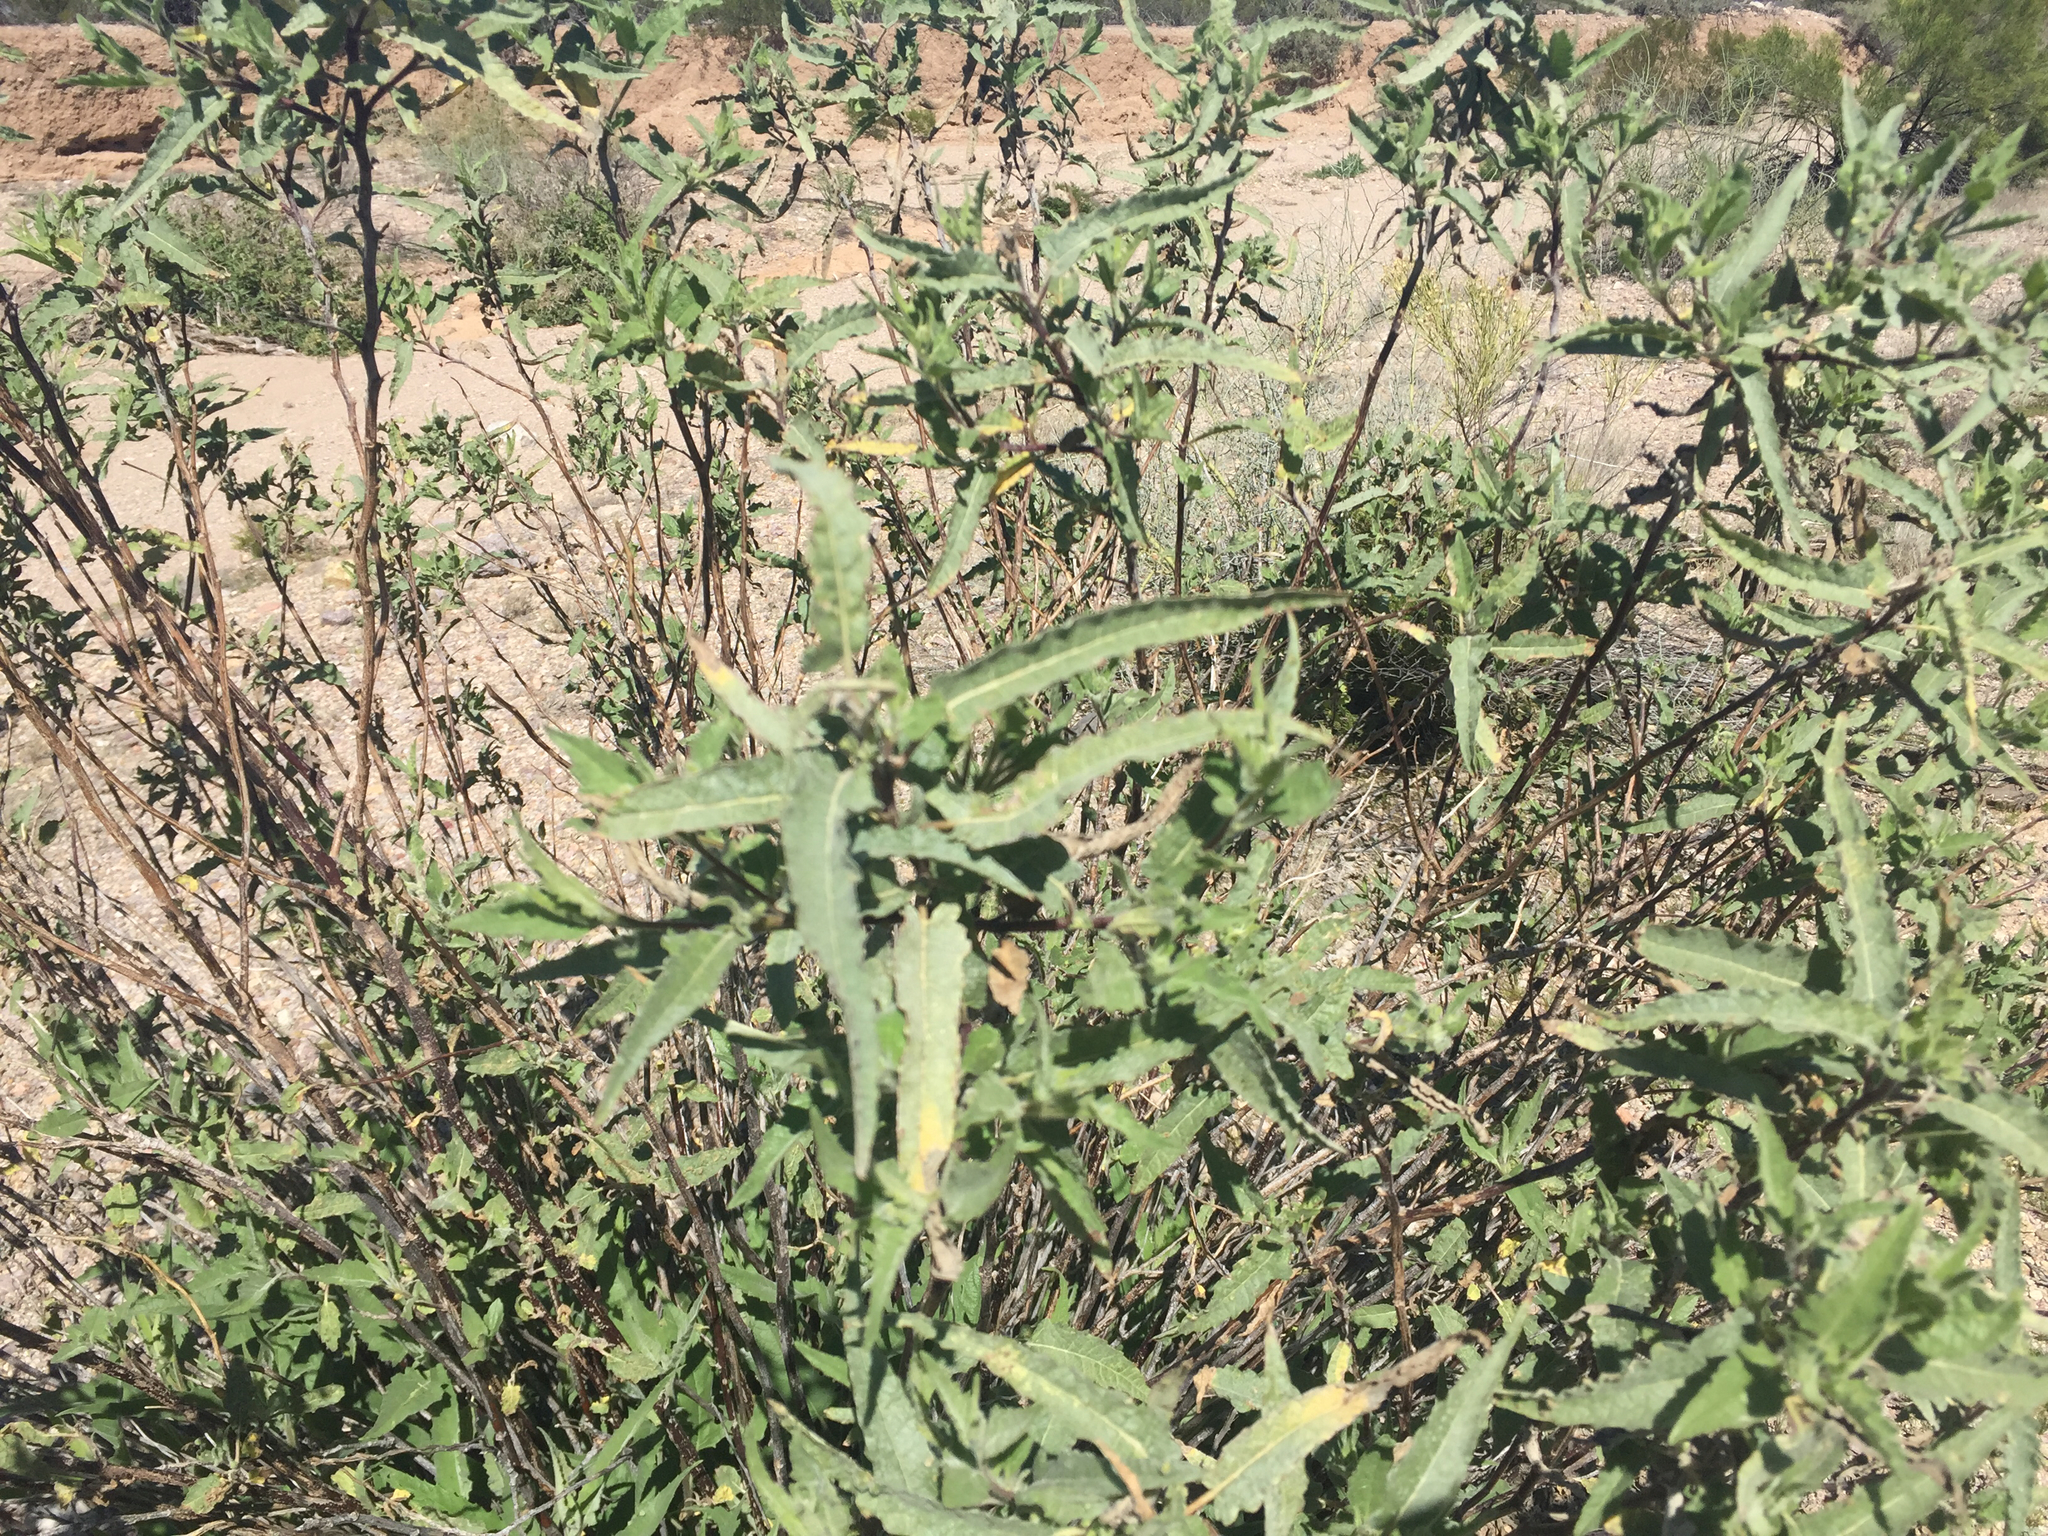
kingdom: Plantae
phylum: Tracheophyta
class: Magnoliopsida
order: Asterales
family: Asteraceae
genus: Ambrosia
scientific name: Ambrosia ambrosioides
